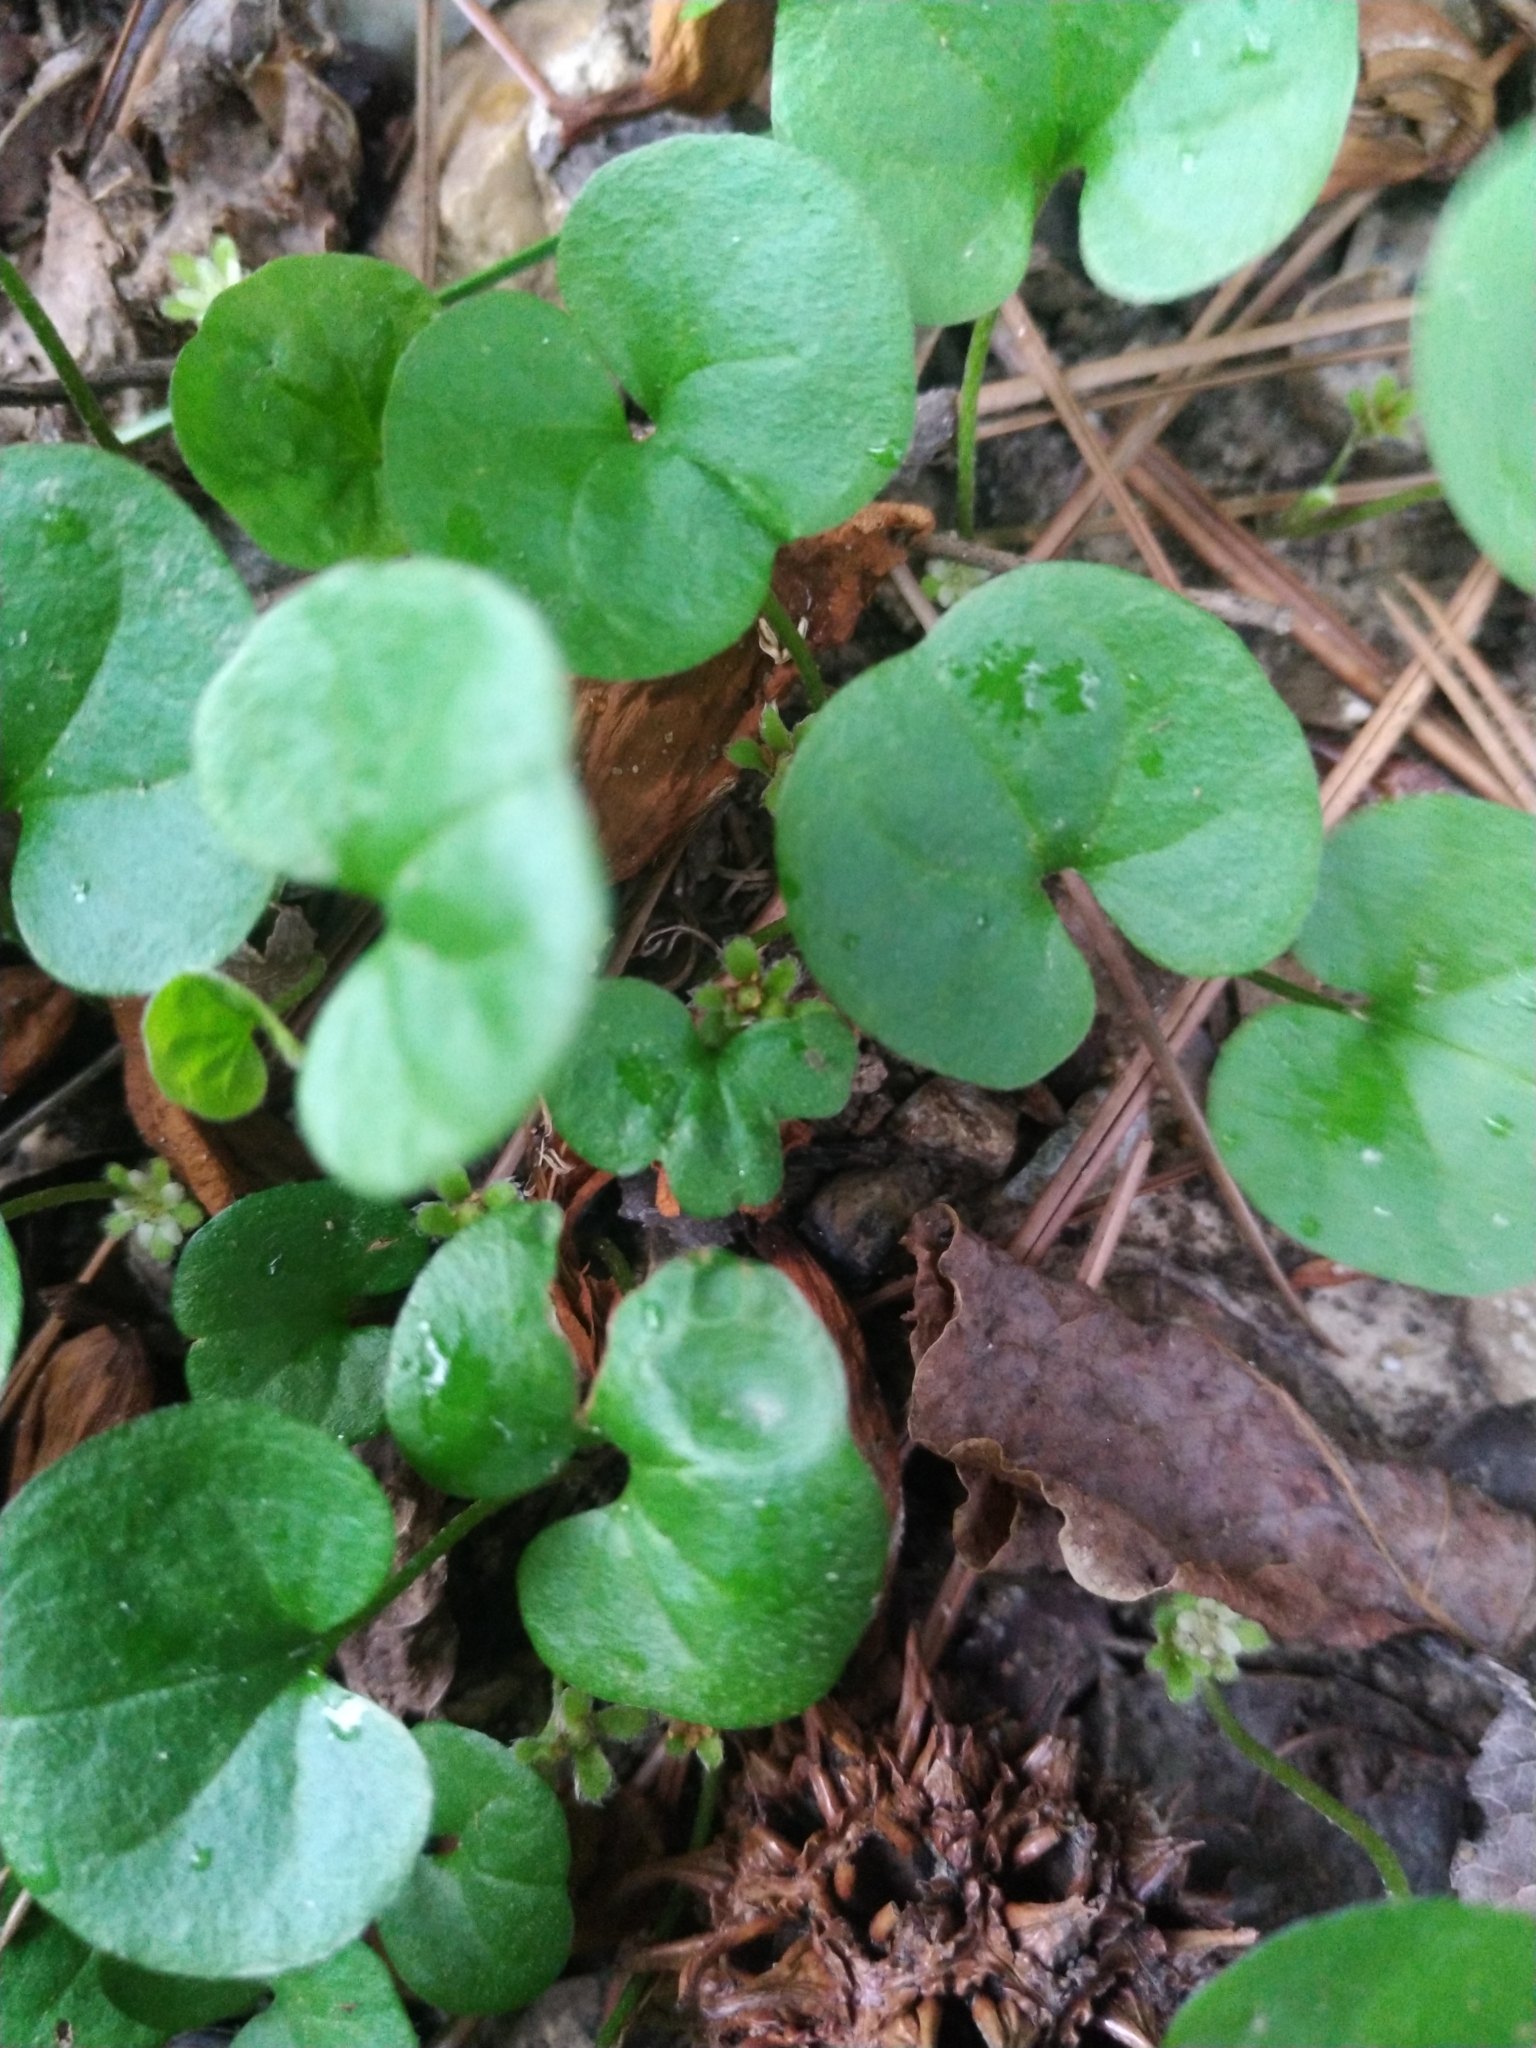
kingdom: Plantae
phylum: Tracheophyta
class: Magnoliopsida
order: Solanales
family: Convolvulaceae
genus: Dichondra
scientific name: Dichondra carolinensis
